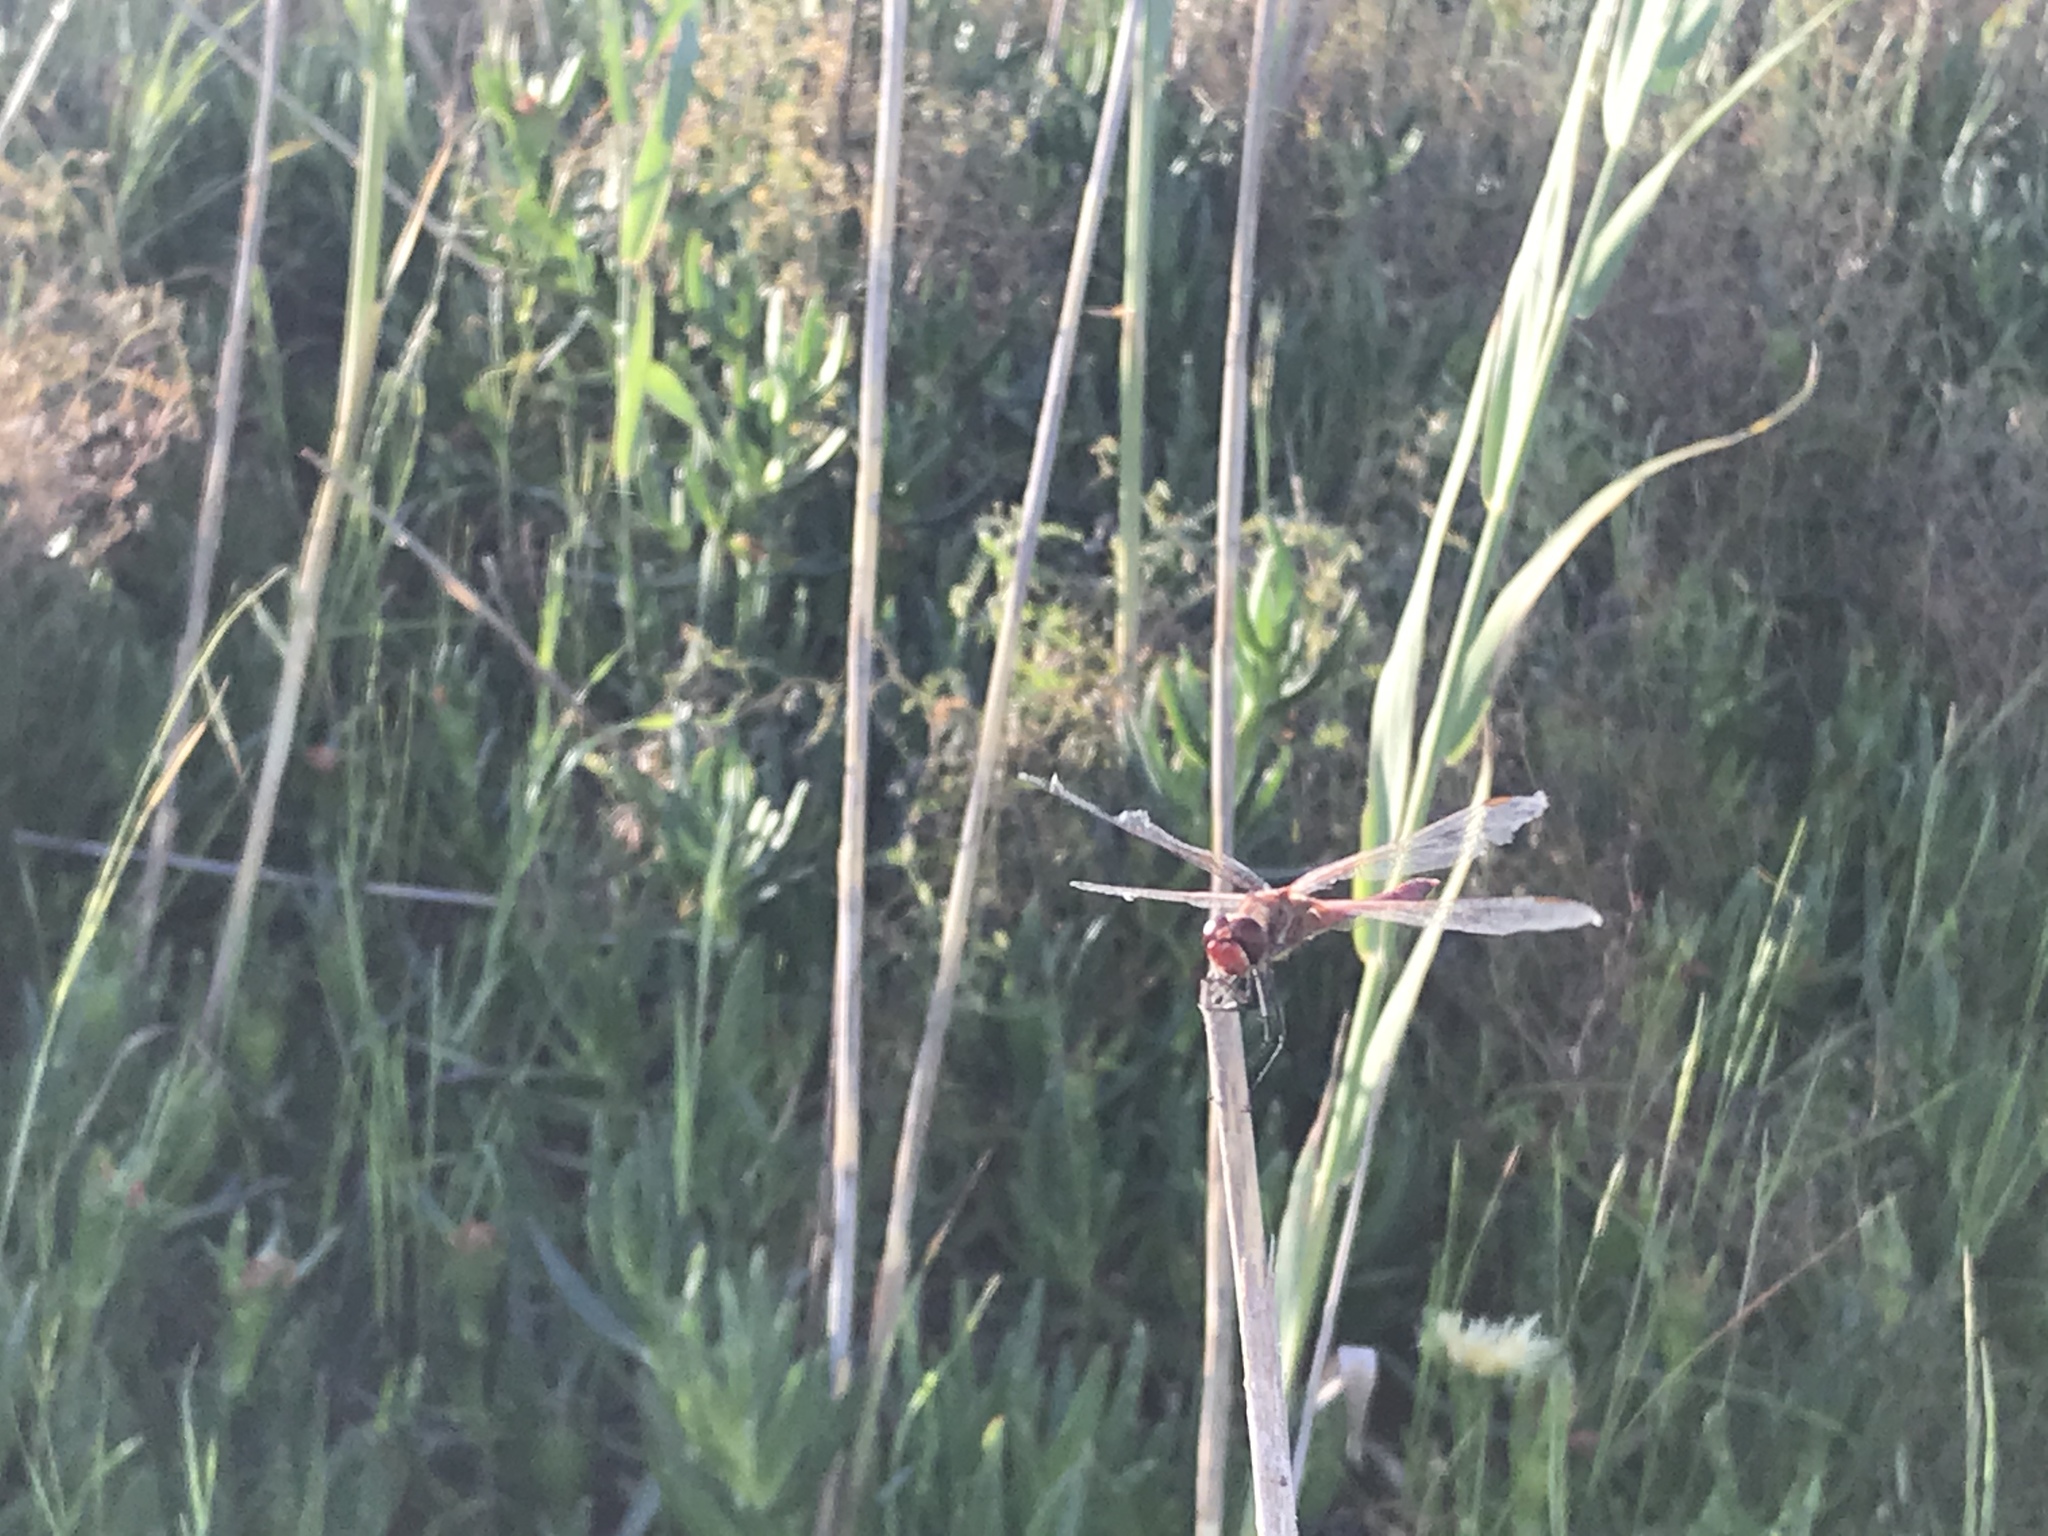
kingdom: Animalia
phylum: Arthropoda
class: Insecta
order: Odonata
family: Libellulidae
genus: Sympetrum
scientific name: Sympetrum fonscolombii
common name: Red-veined darter
